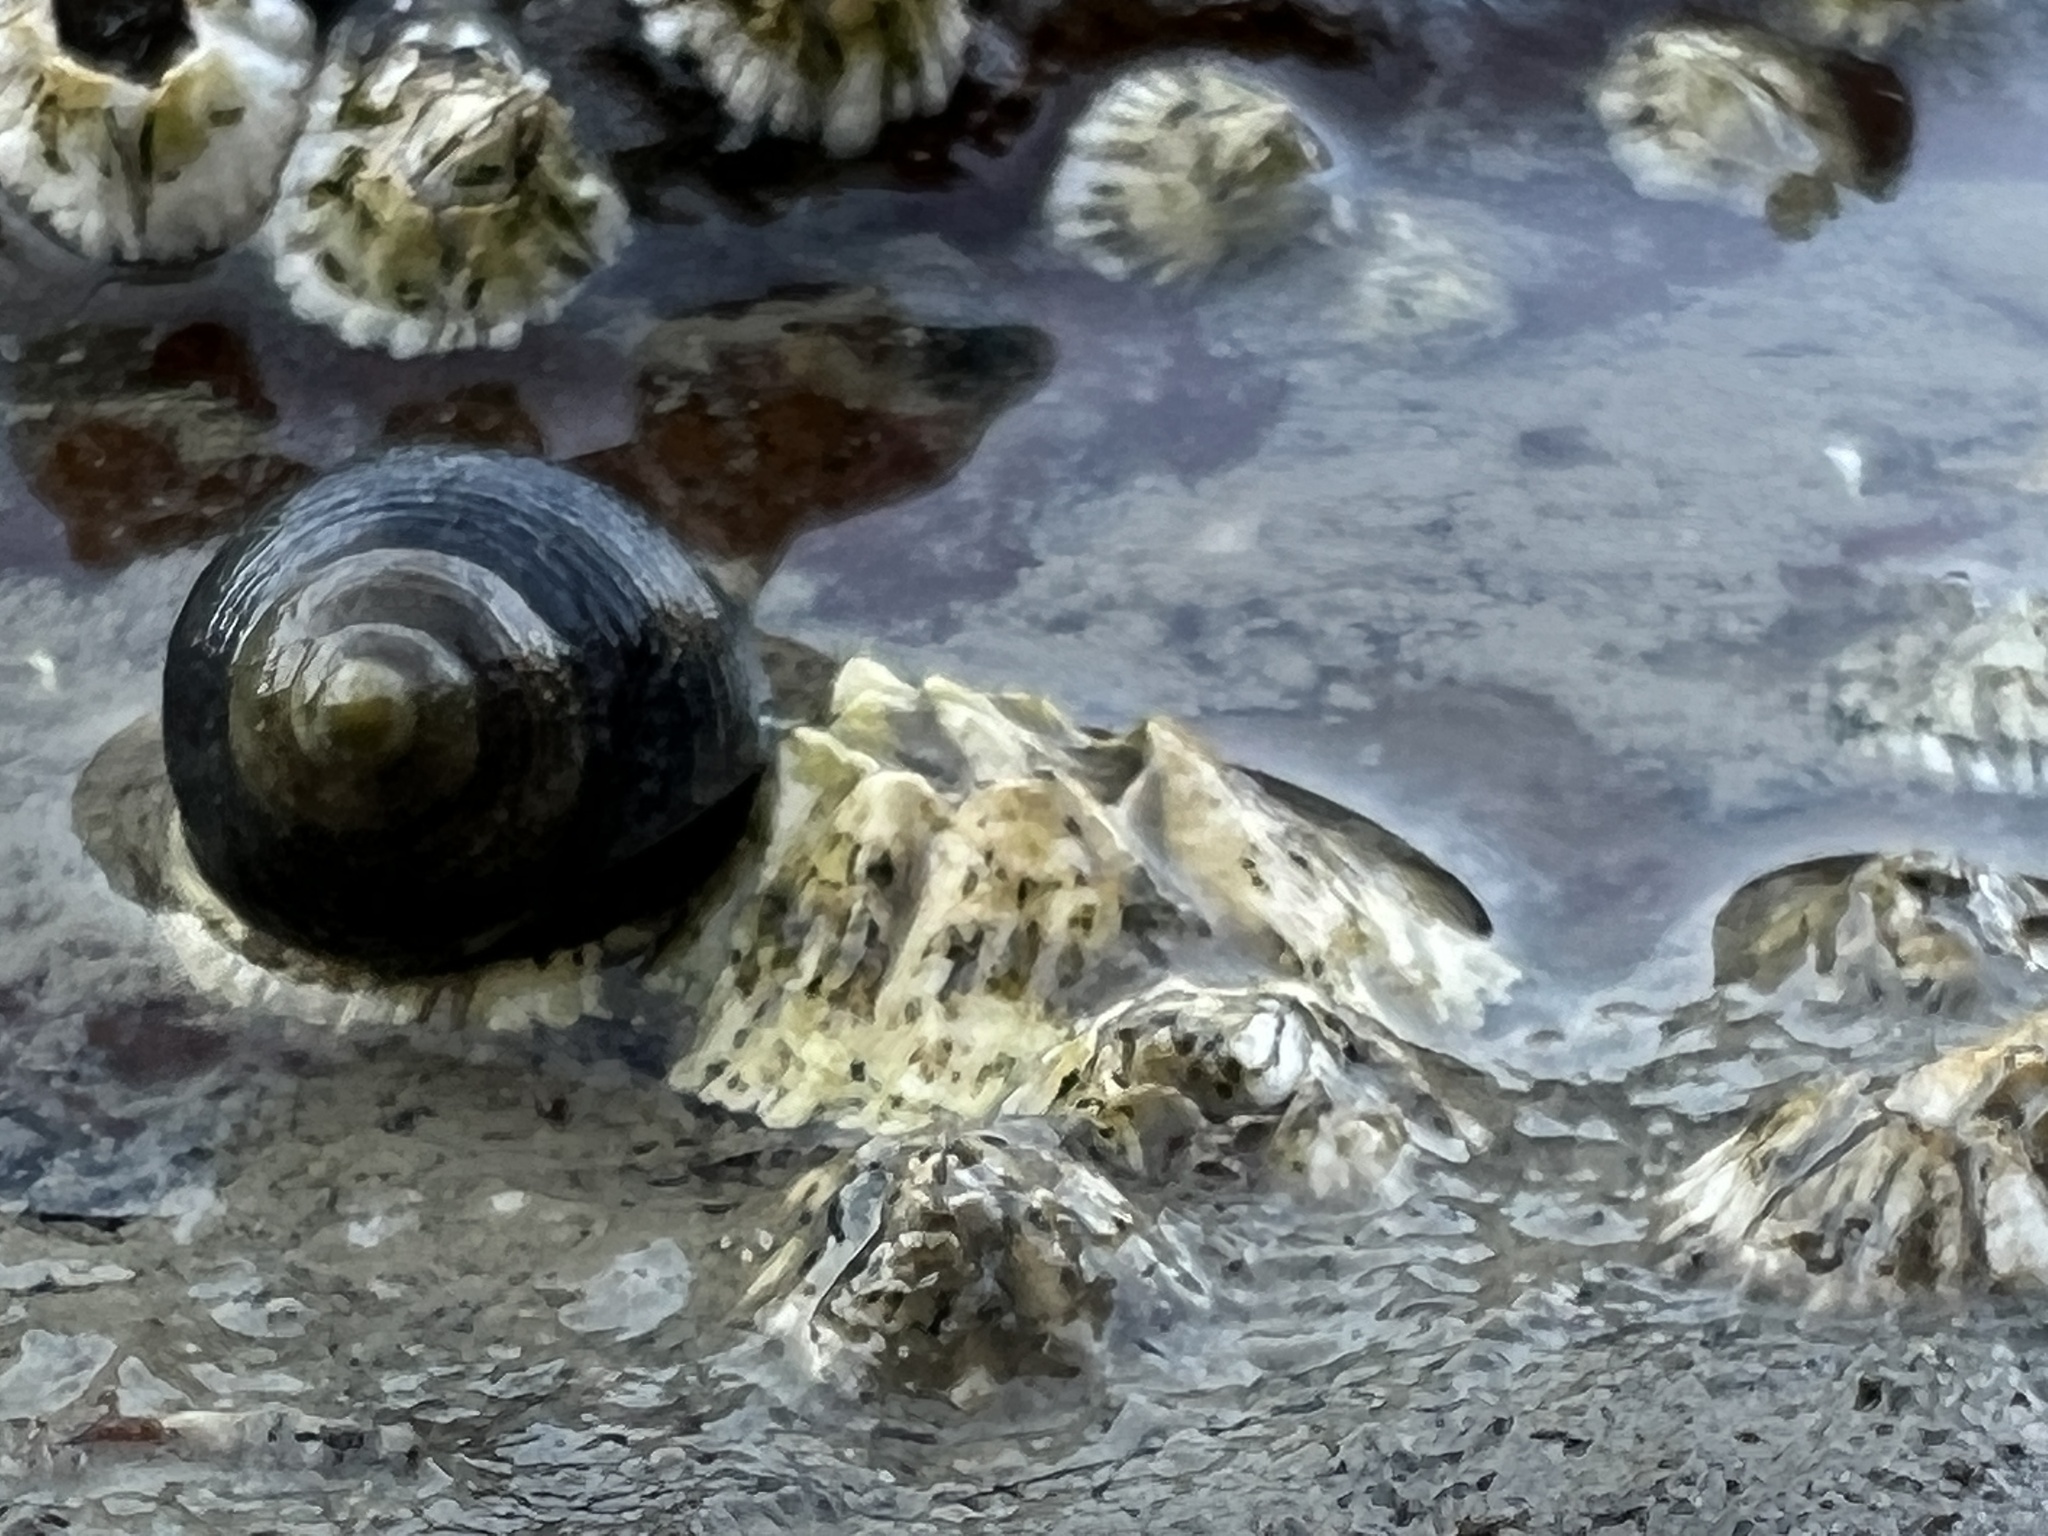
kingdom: Animalia
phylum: Mollusca
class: Gastropoda
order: Littorinimorpha
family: Littorinidae
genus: Littorina
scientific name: Littorina littorea
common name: Common periwinkle
